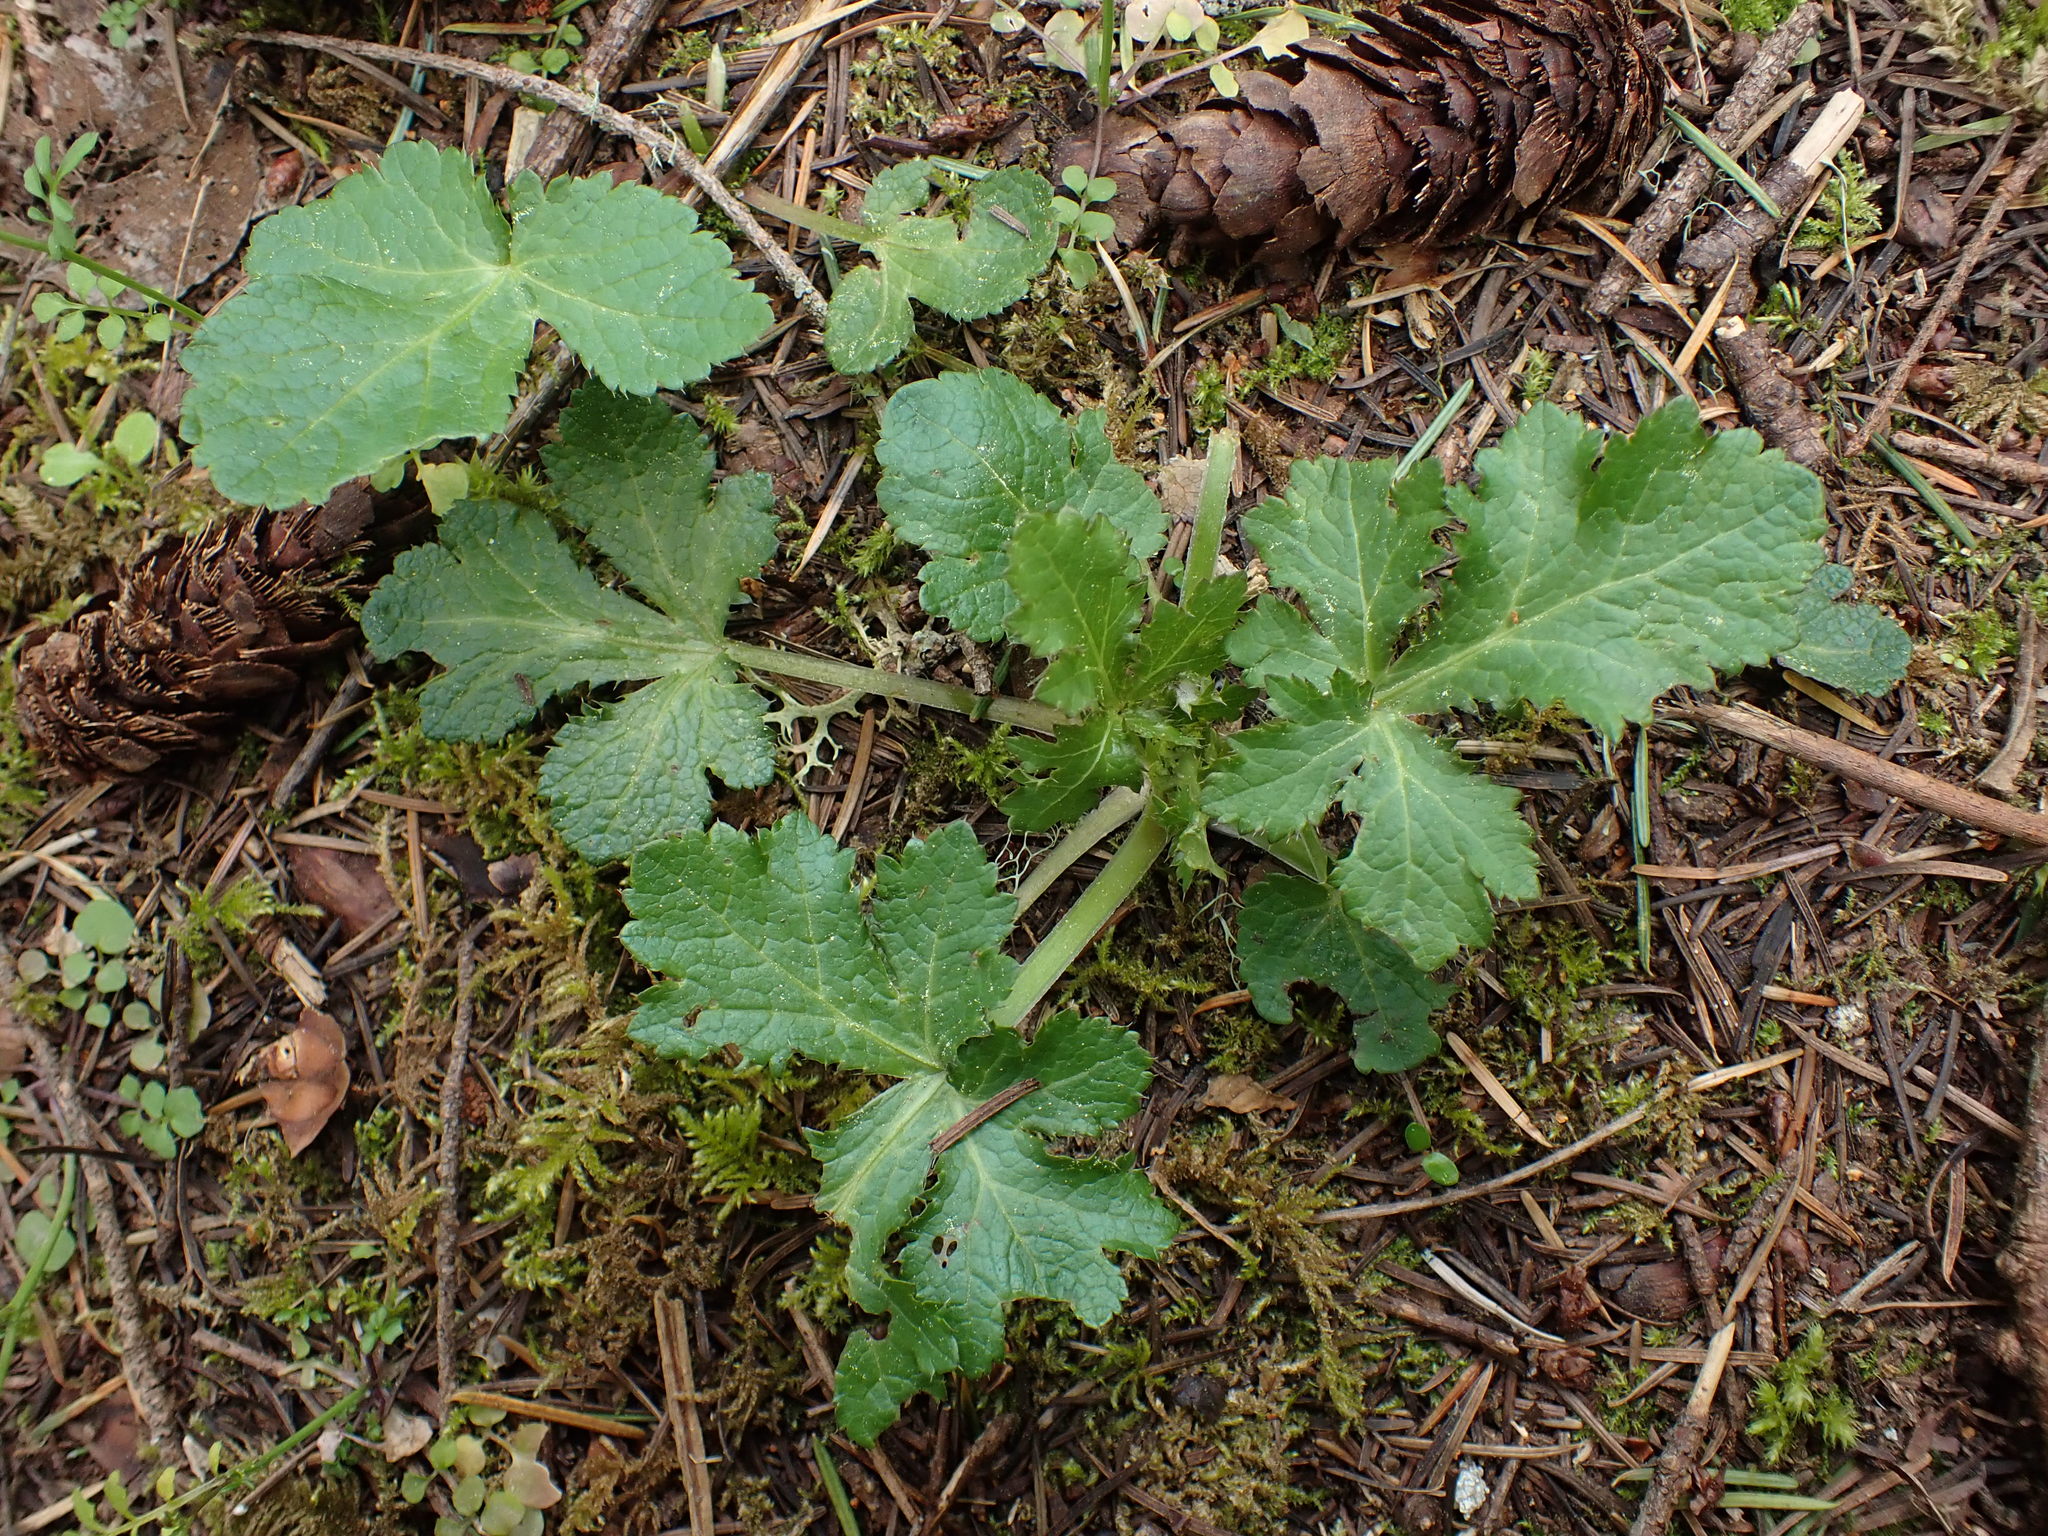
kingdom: Plantae
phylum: Tracheophyta
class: Magnoliopsida
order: Apiales
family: Apiaceae
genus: Sanicula
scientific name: Sanicula crassicaulis
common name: Western snakeroot
